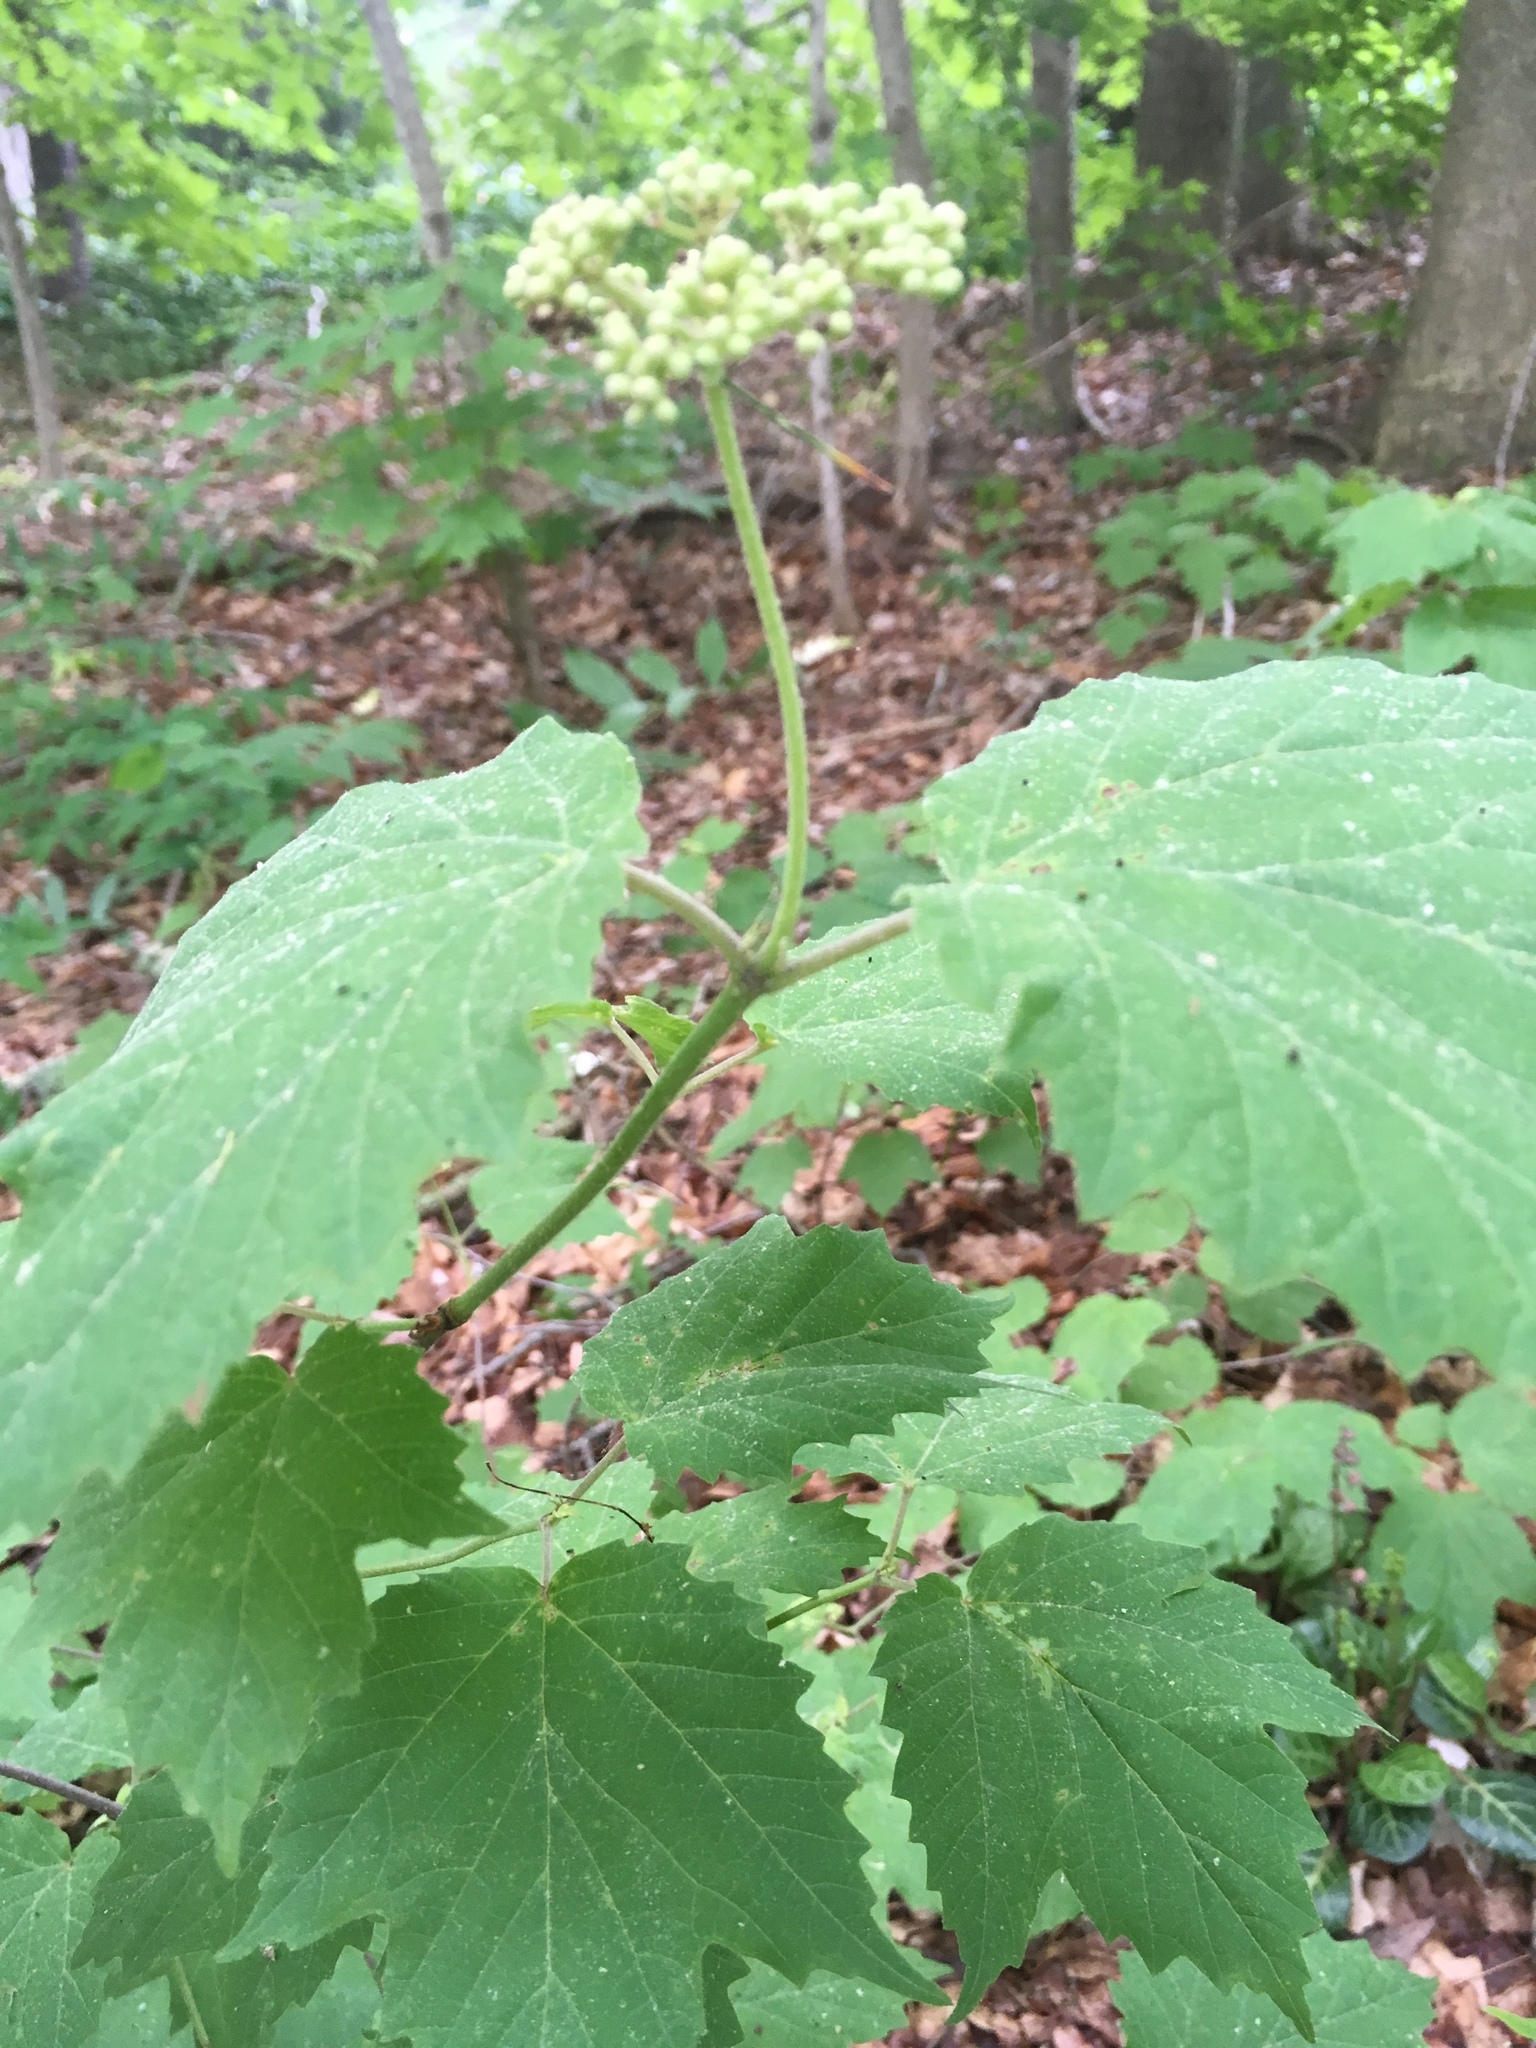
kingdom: Plantae
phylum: Tracheophyta
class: Magnoliopsida
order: Dipsacales
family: Viburnaceae
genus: Viburnum
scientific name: Viburnum acerifolium
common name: Dockmackie
